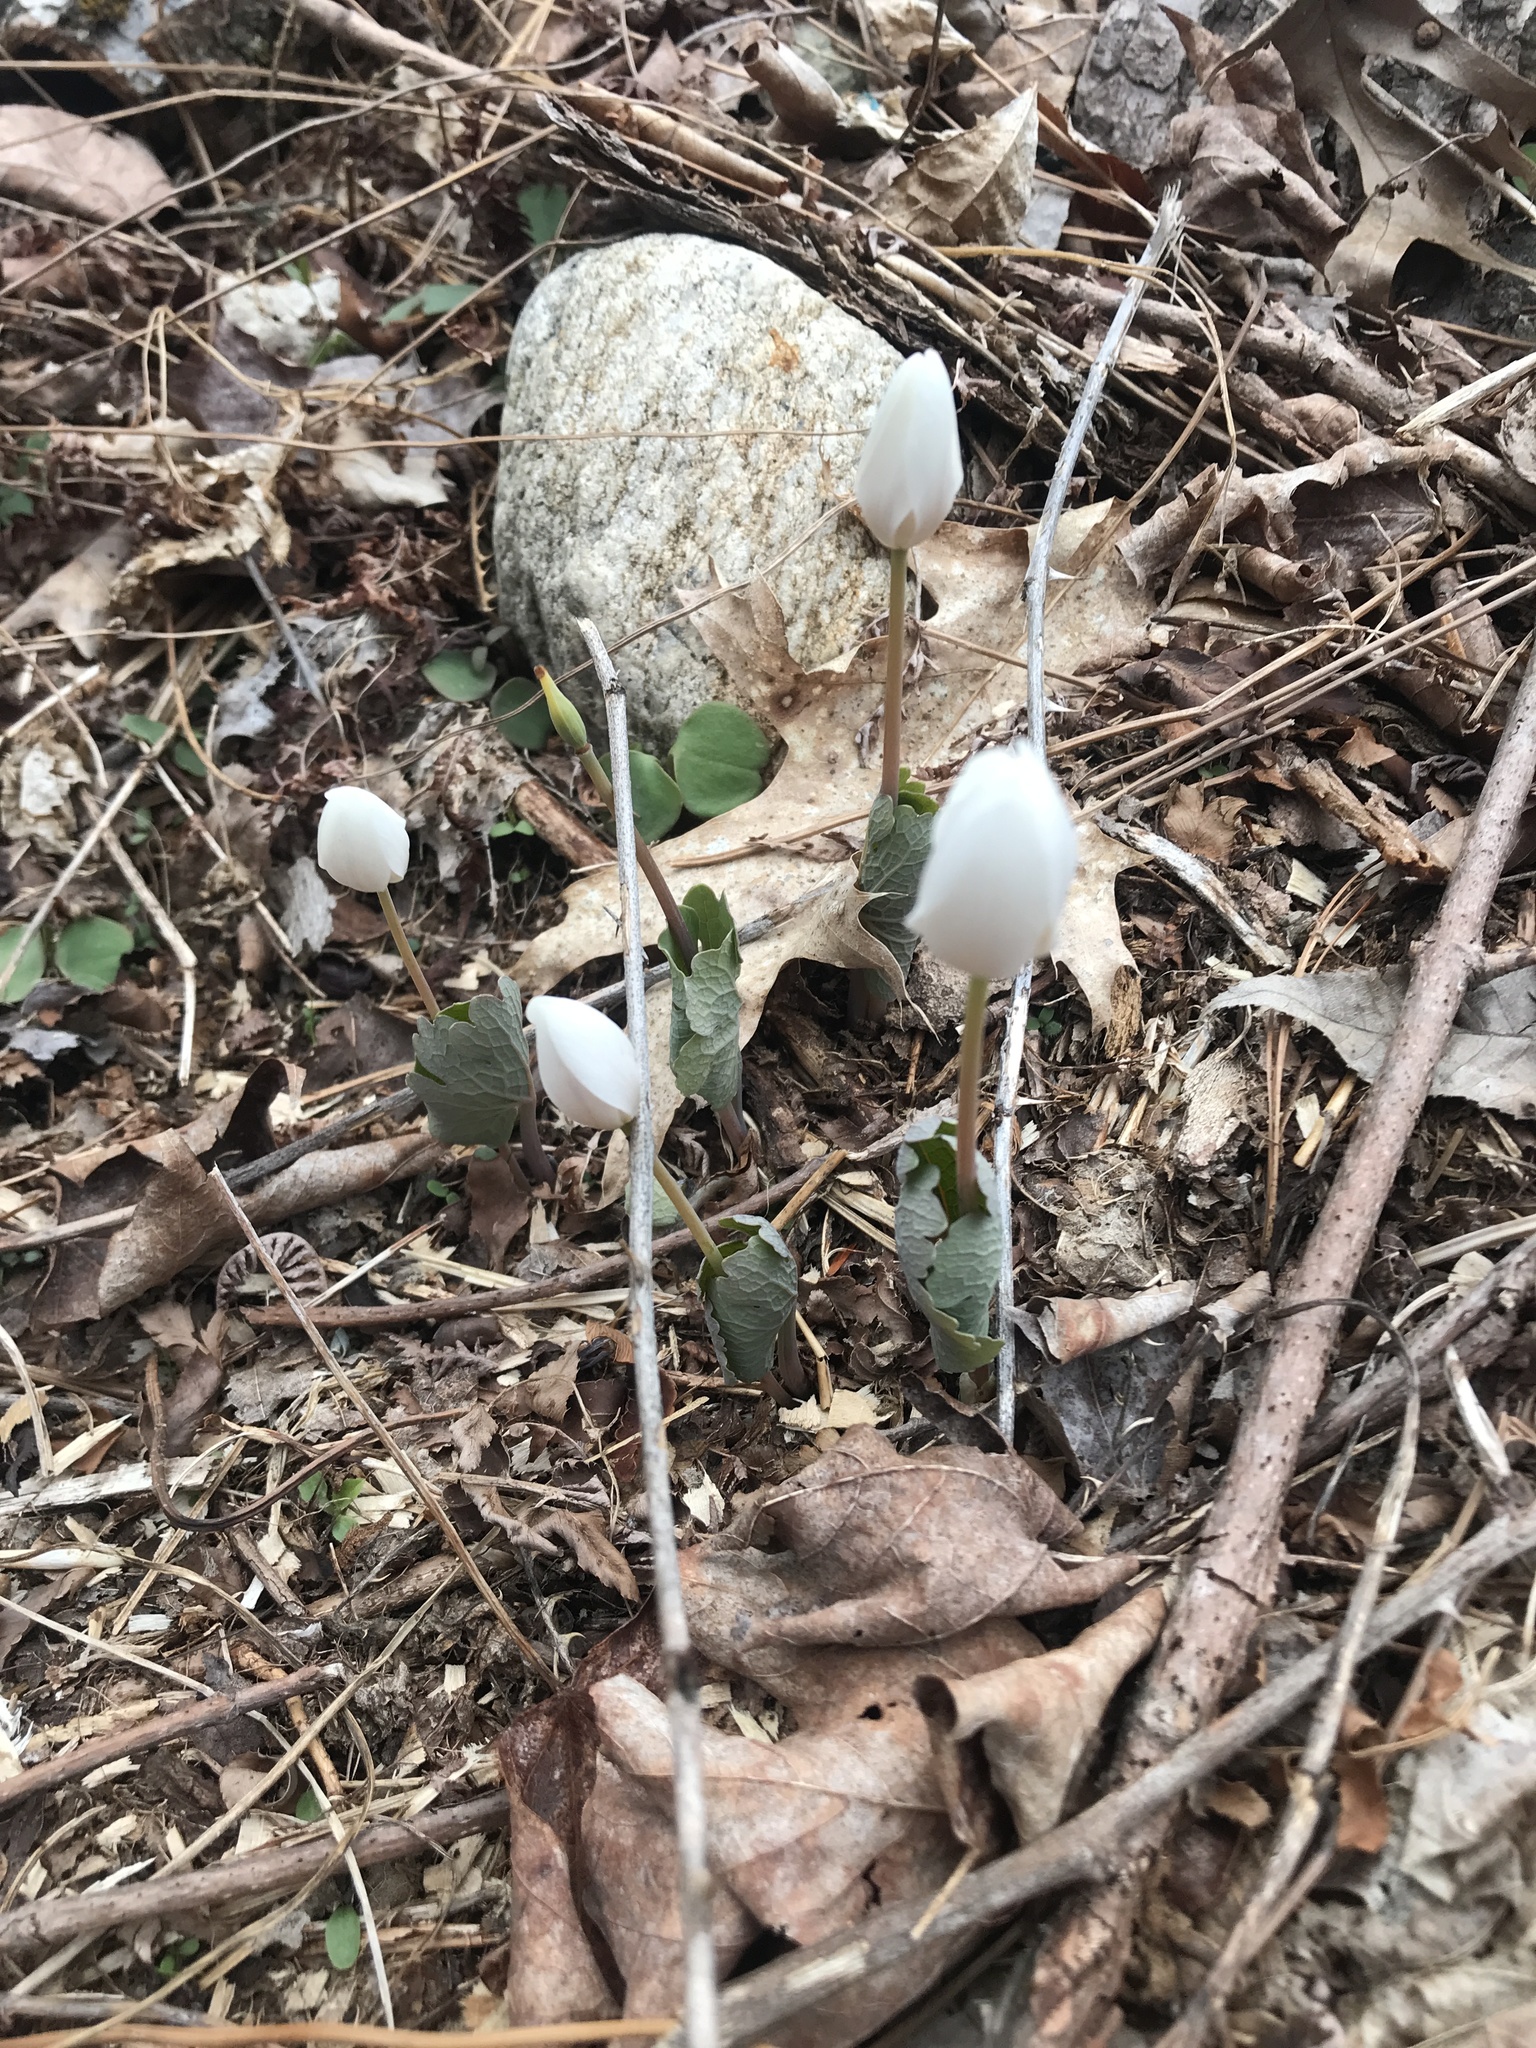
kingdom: Plantae
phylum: Tracheophyta
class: Magnoliopsida
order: Ranunculales
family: Papaveraceae
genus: Sanguinaria
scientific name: Sanguinaria canadensis
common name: Bloodroot
